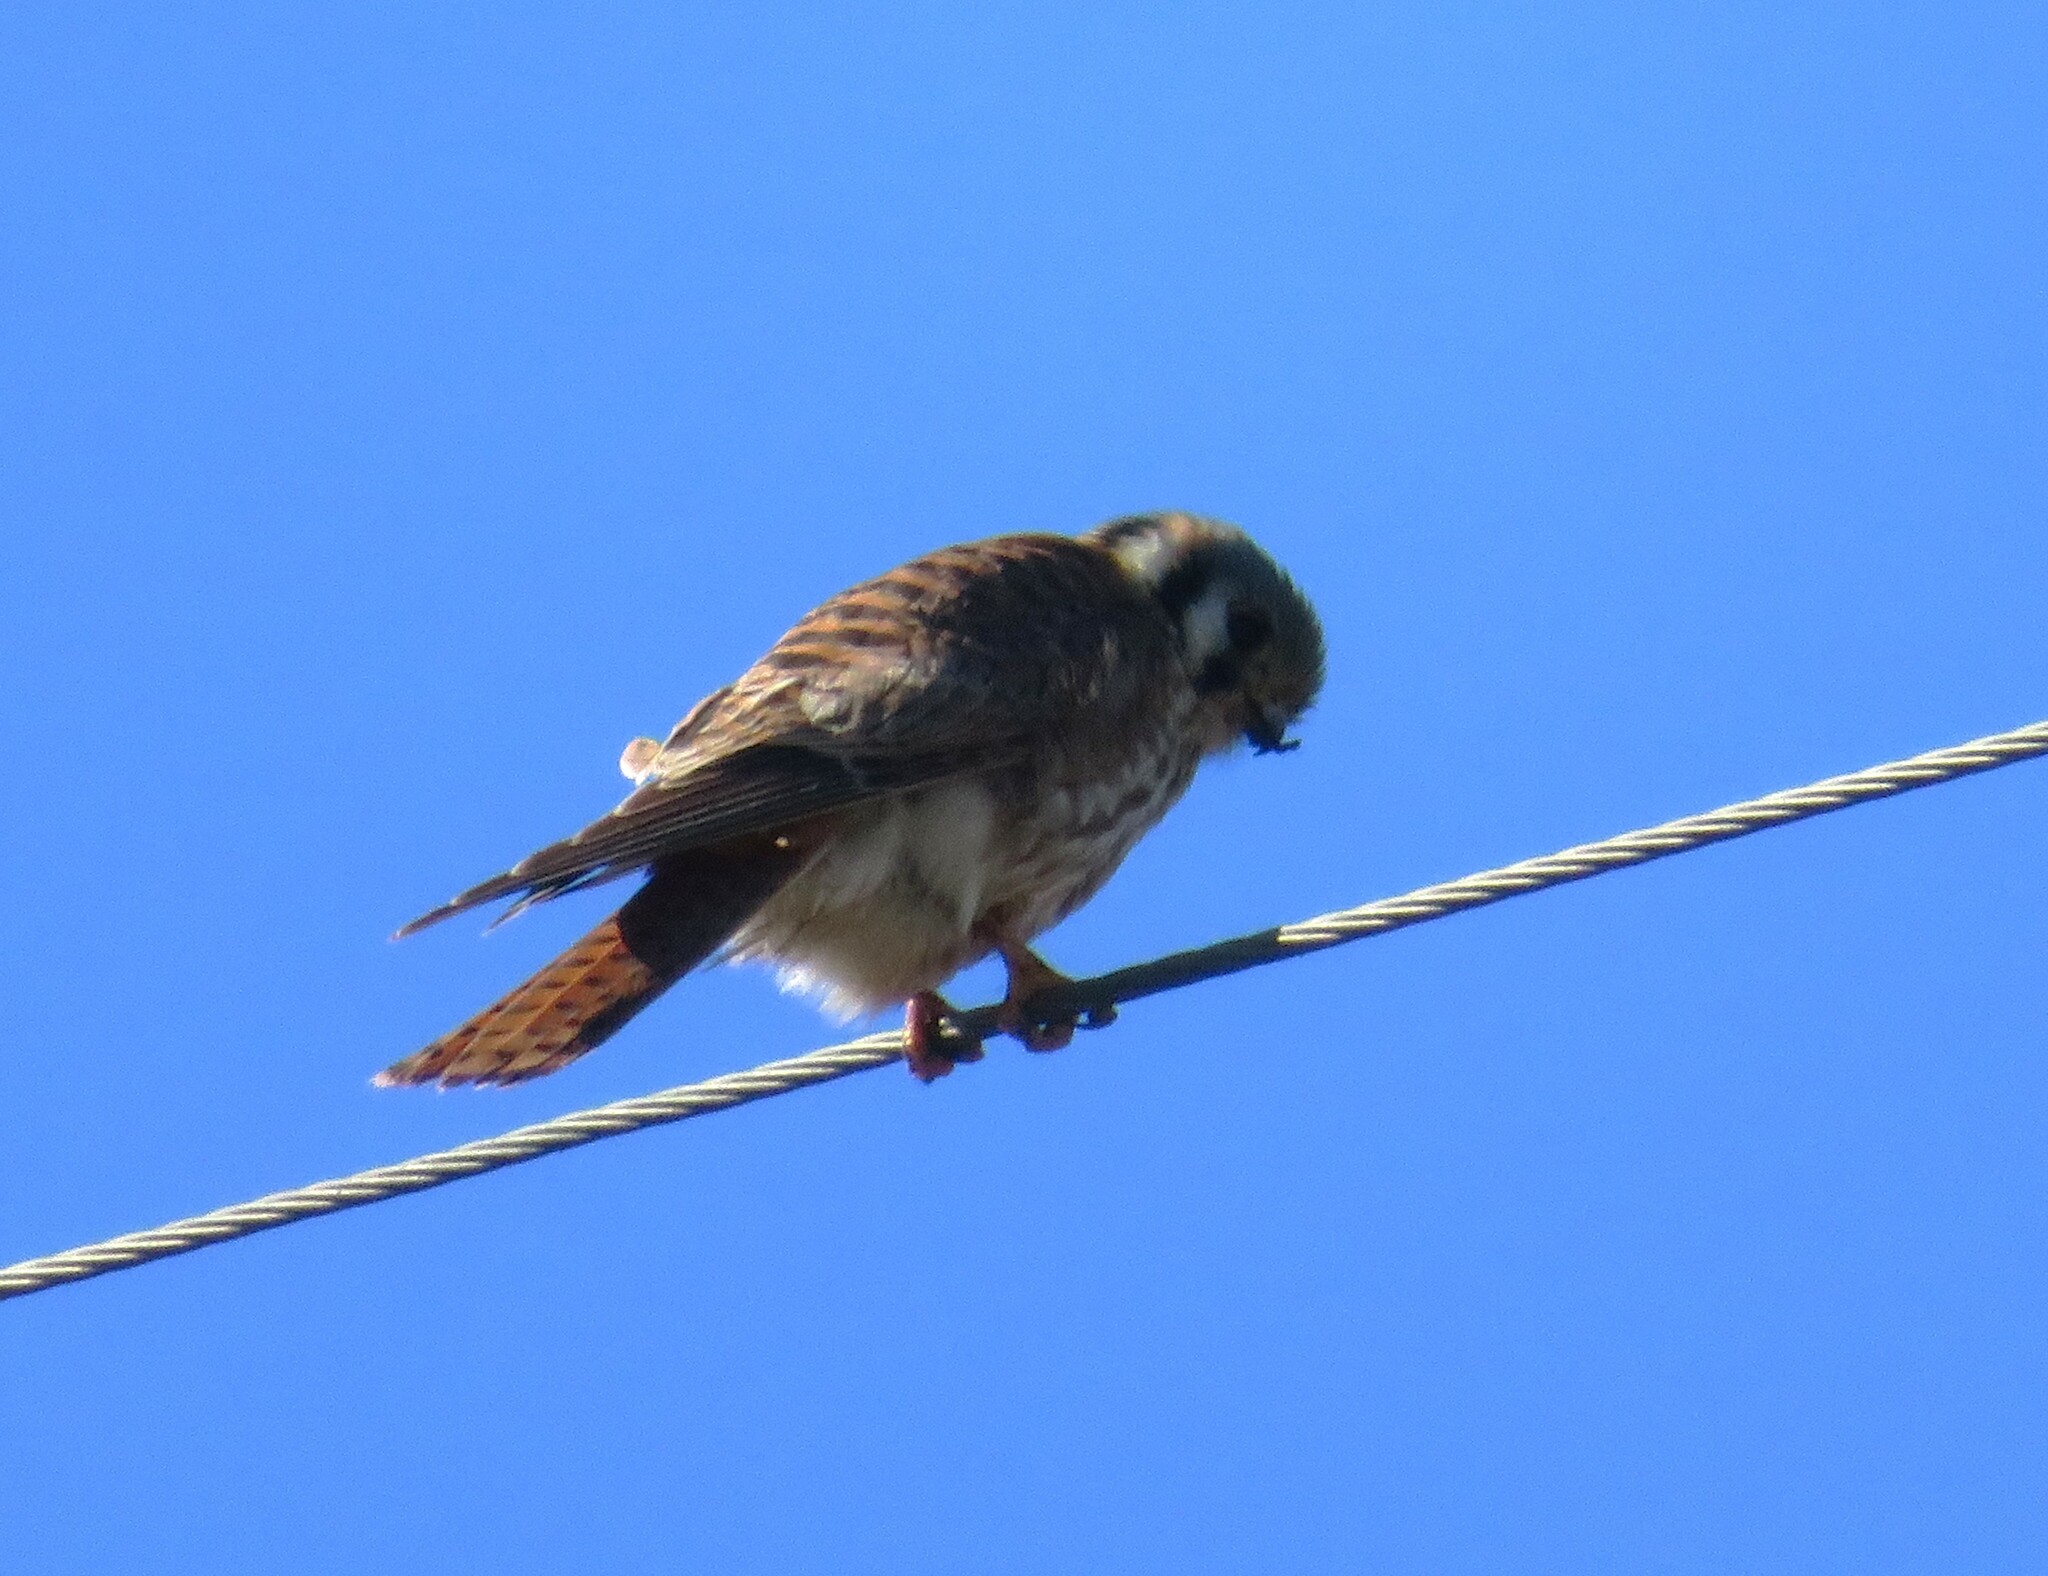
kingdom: Animalia
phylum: Chordata
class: Aves
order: Falconiformes
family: Falconidae
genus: Falco
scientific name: Falco sparverius
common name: American kestrel
